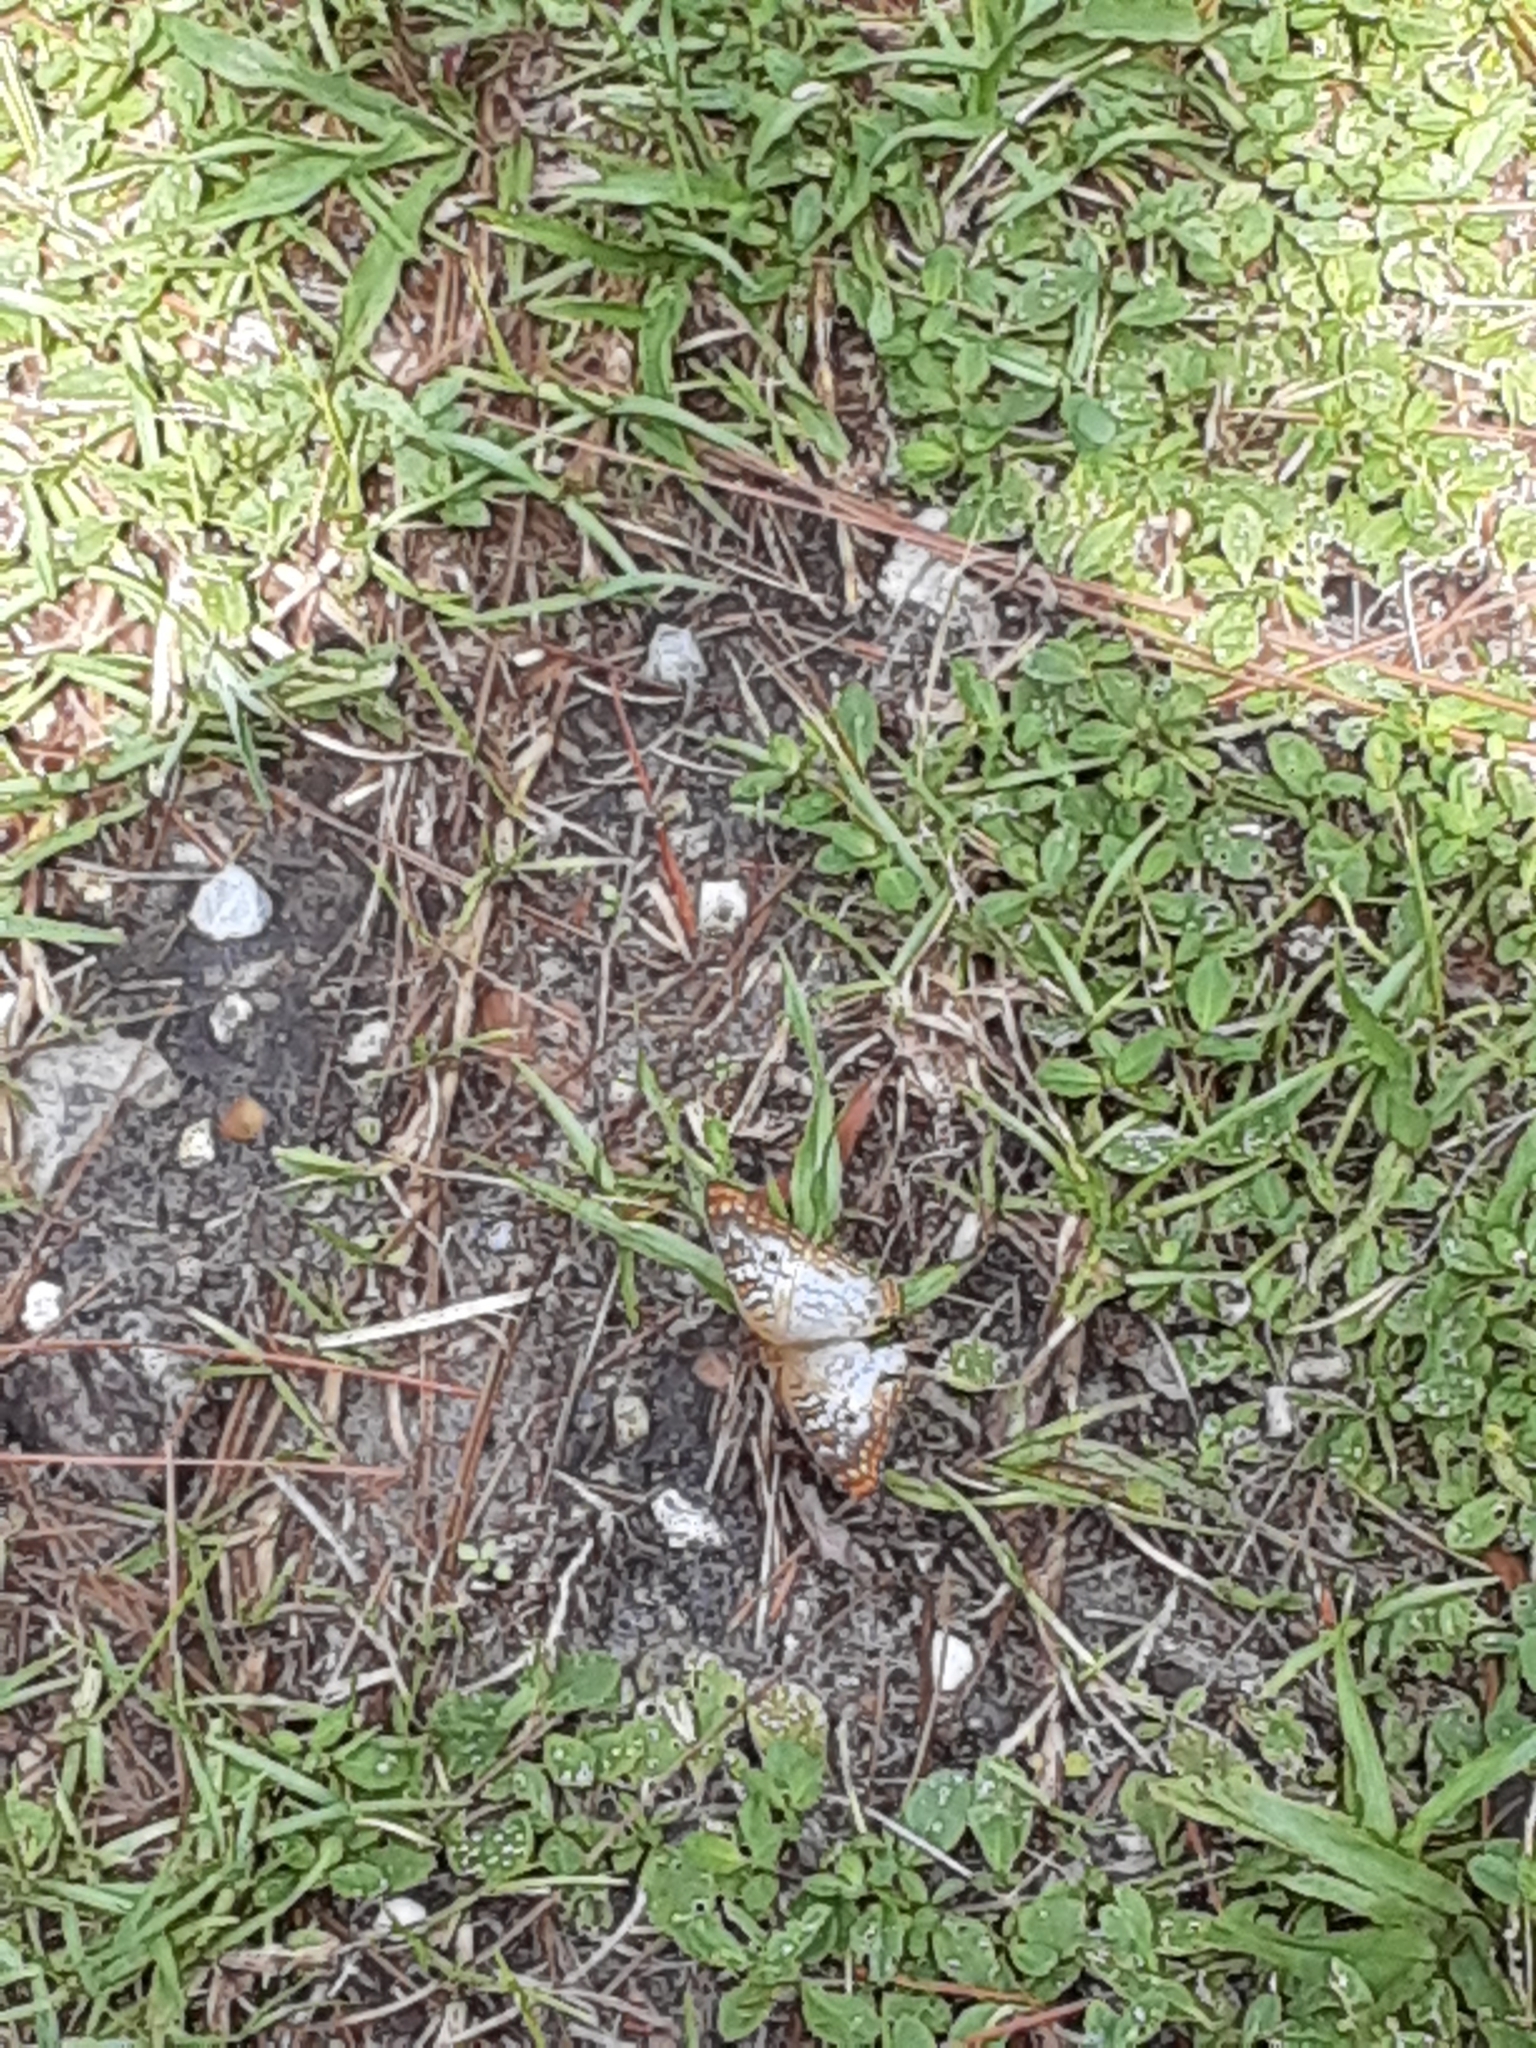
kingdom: Animalia
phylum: Arthropoda
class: Insecta
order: Lepidoptera
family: Nymphalidae
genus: Anartia
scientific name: Anartia jatrophae
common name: White peacock
